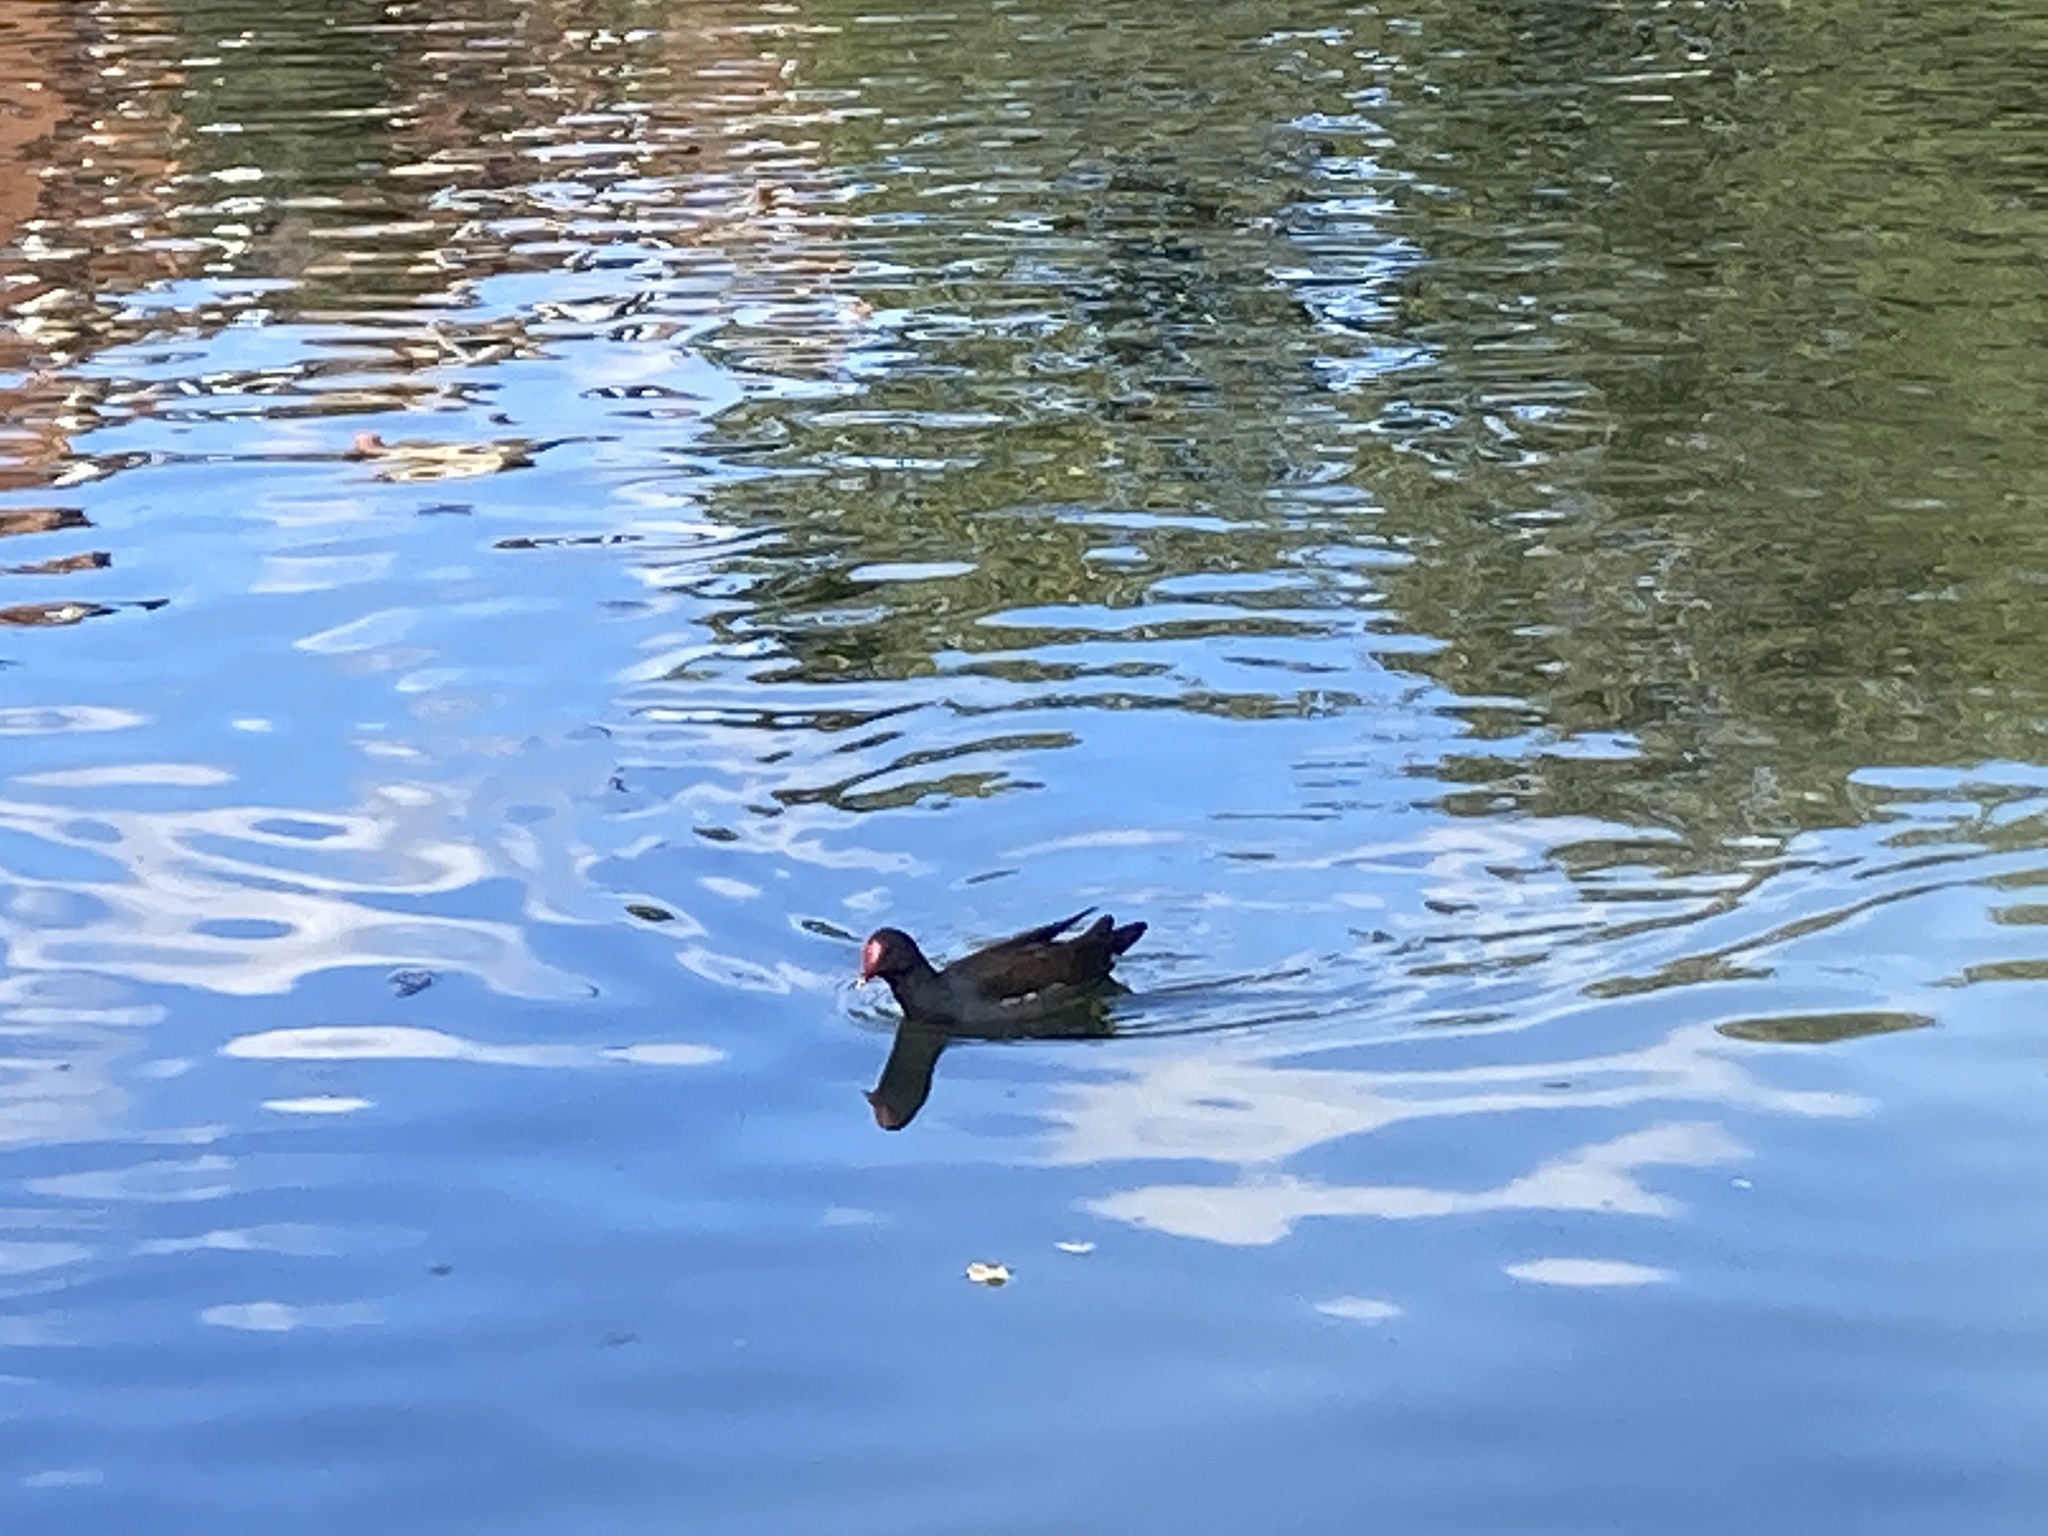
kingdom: Animalia
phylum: Chordata
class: Aves
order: Gruiformes
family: Rallidae
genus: Gallinula
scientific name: Gallinula chloropus
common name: Common moorhen
